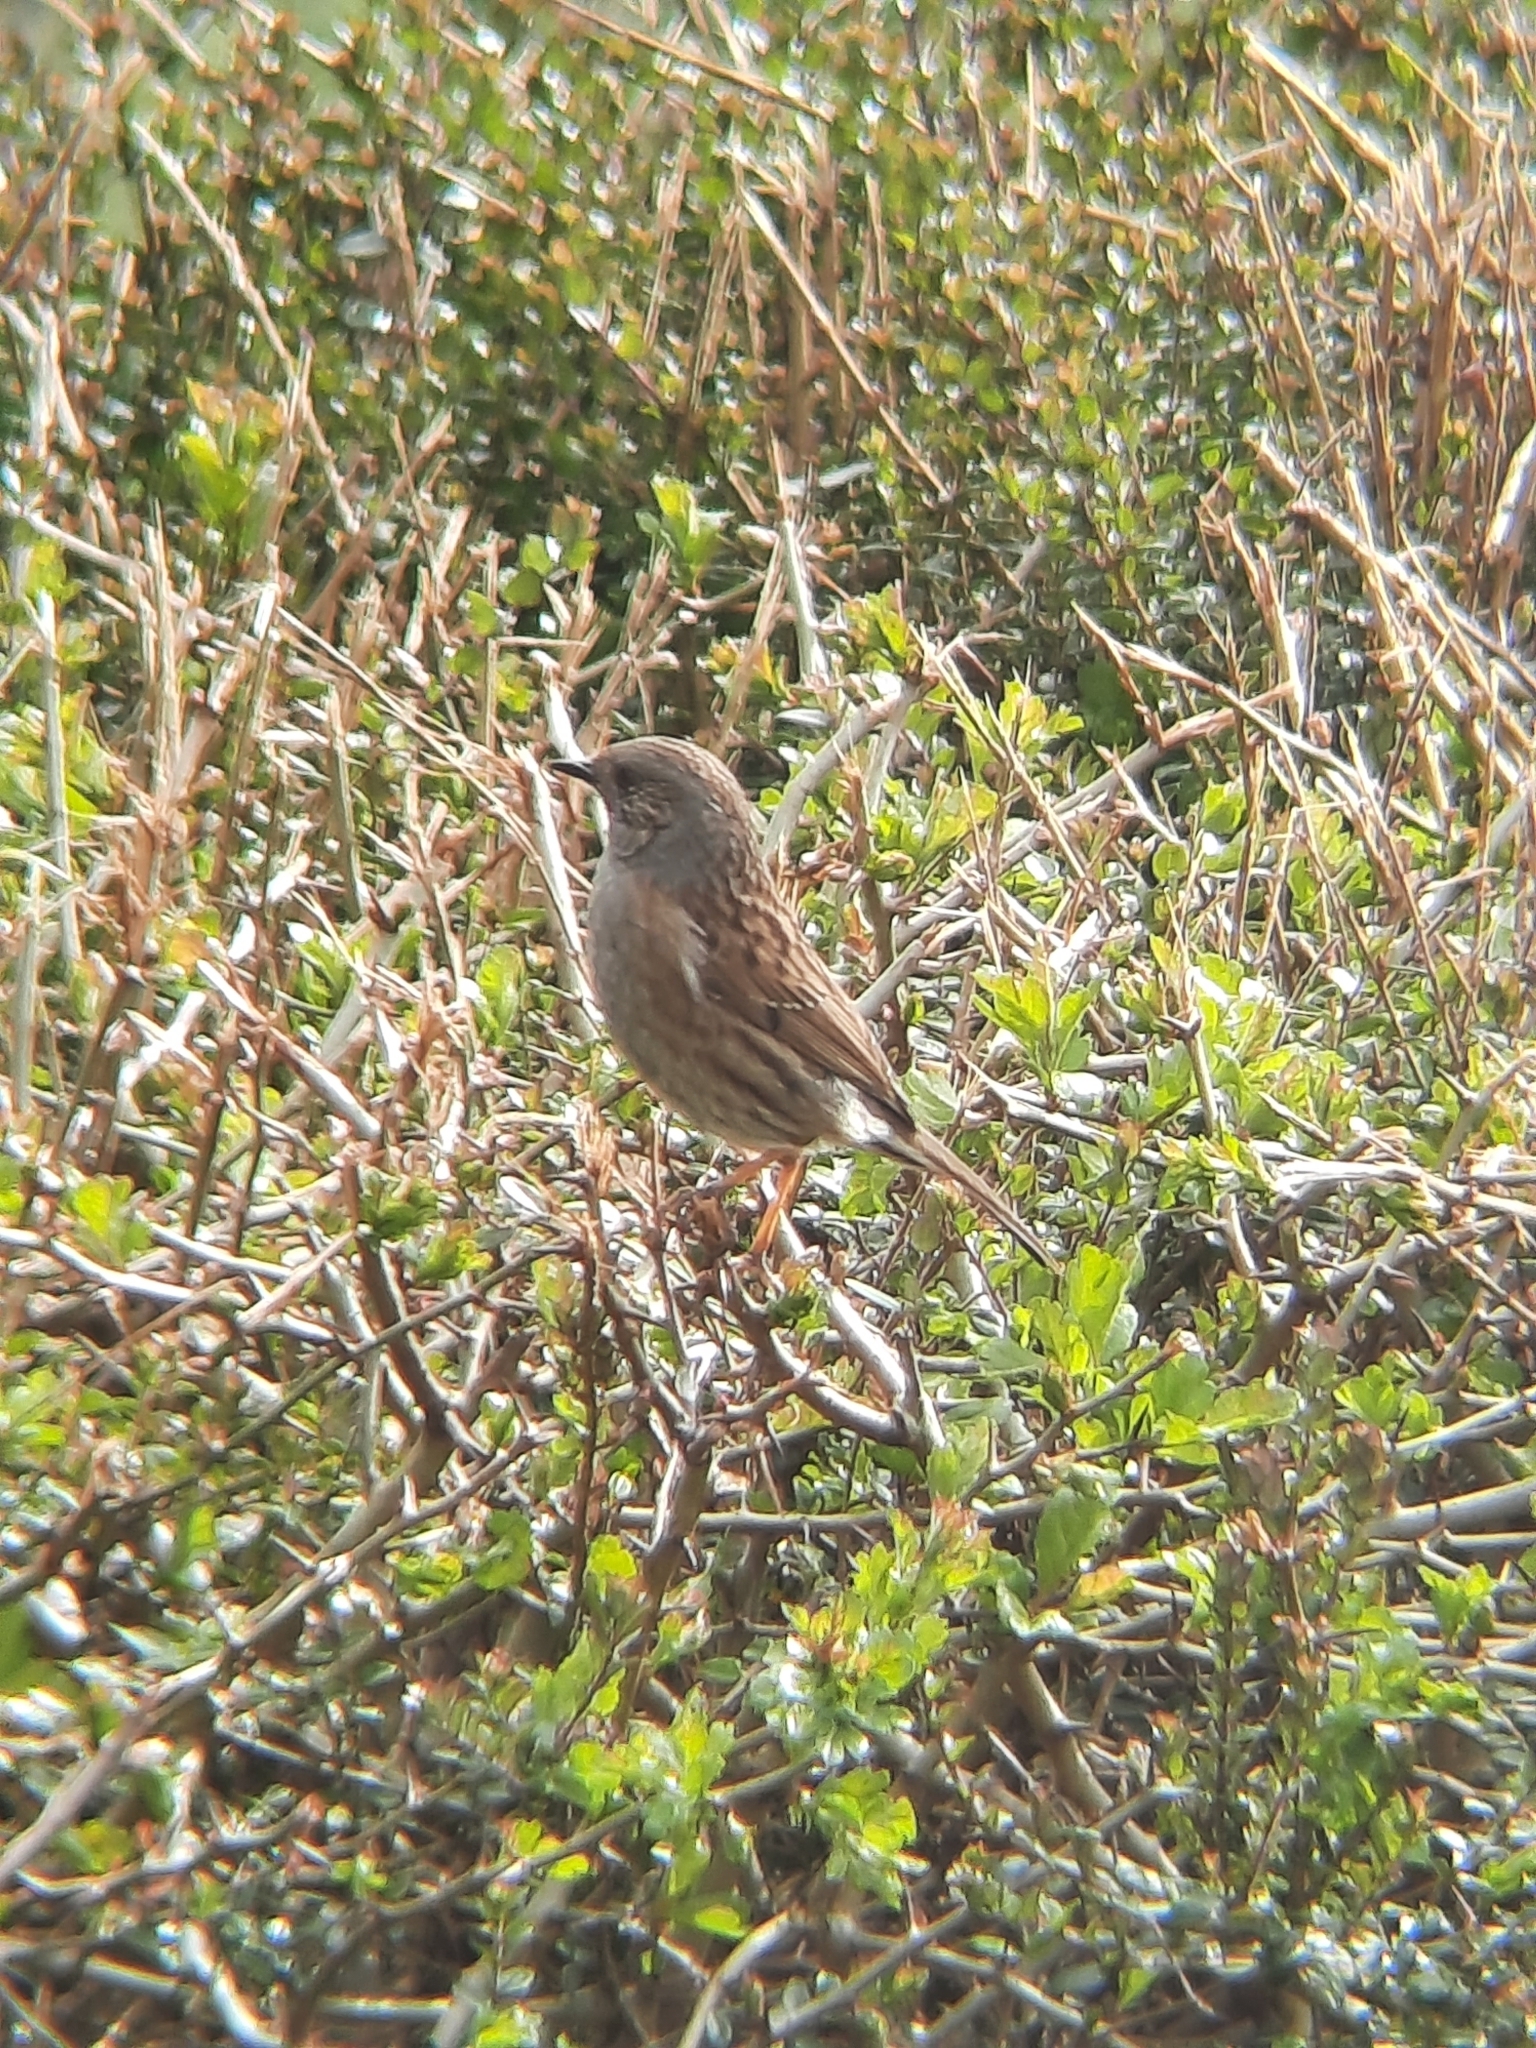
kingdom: Animalia
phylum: Chordata
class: Aves
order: Passeriformes
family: Prunellidae
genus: Prunella
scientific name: Prunella modularis
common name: Dunnock
